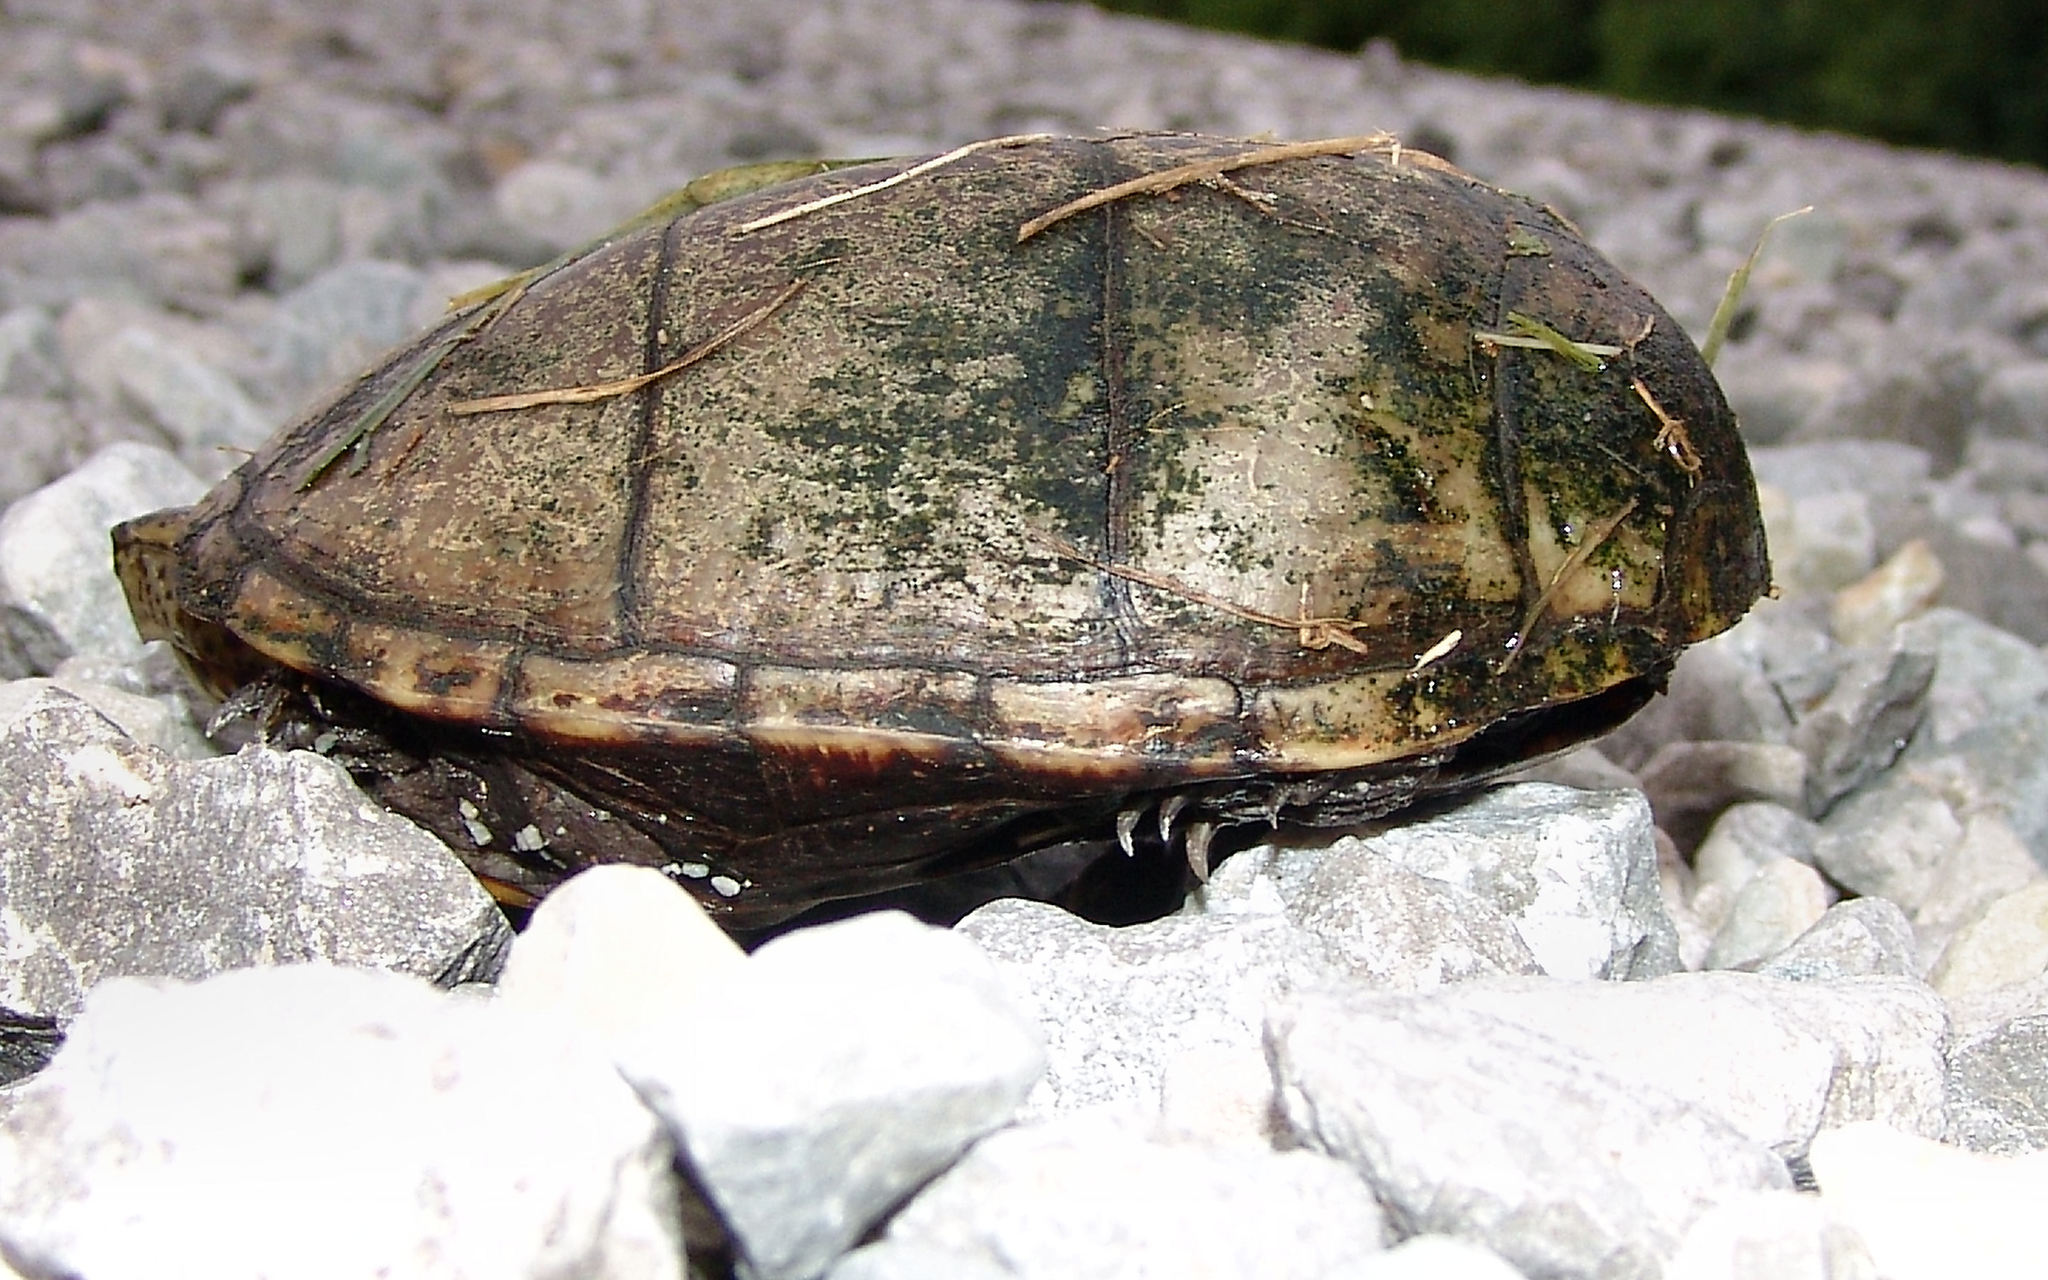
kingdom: Animalia
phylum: Chordata
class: Testudines
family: Kinosternidae
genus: Kinosternon
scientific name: Kinosternon subrubrum
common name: Eastern mud turtle
